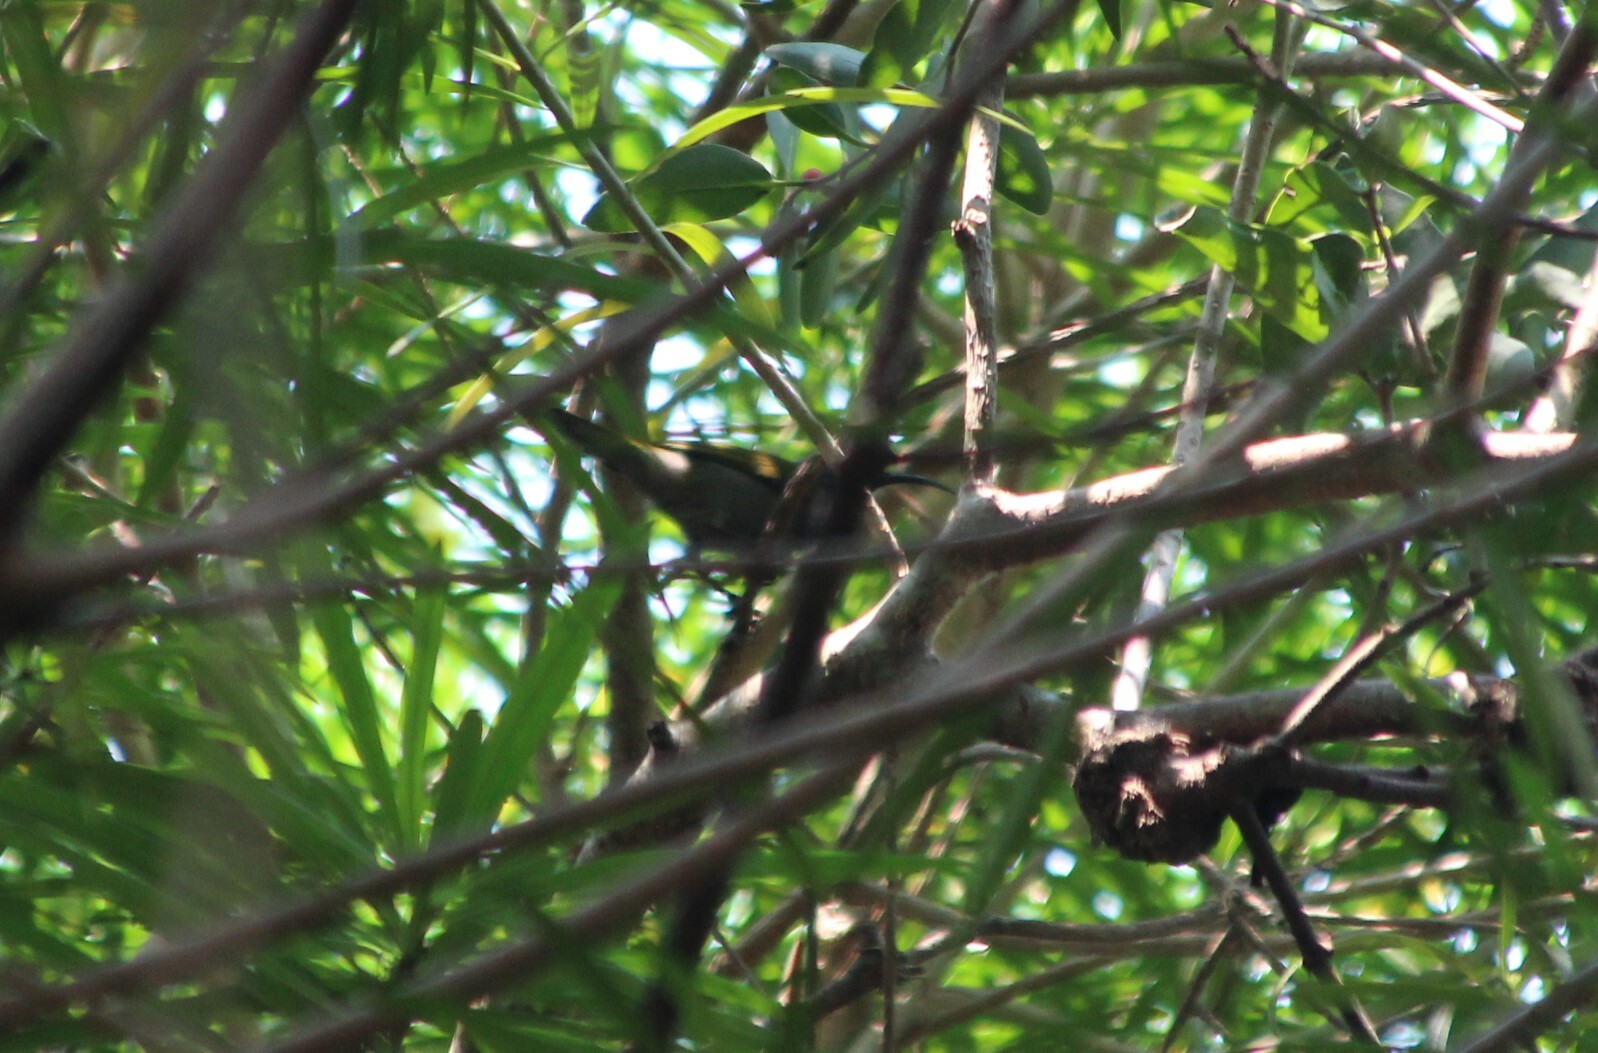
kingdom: Animalia
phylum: Chordata
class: Aves
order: Passeriformes
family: Nectariniidae
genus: Cyanomitra
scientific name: Cyanomitra verticalis
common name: Green-headed sunbird
